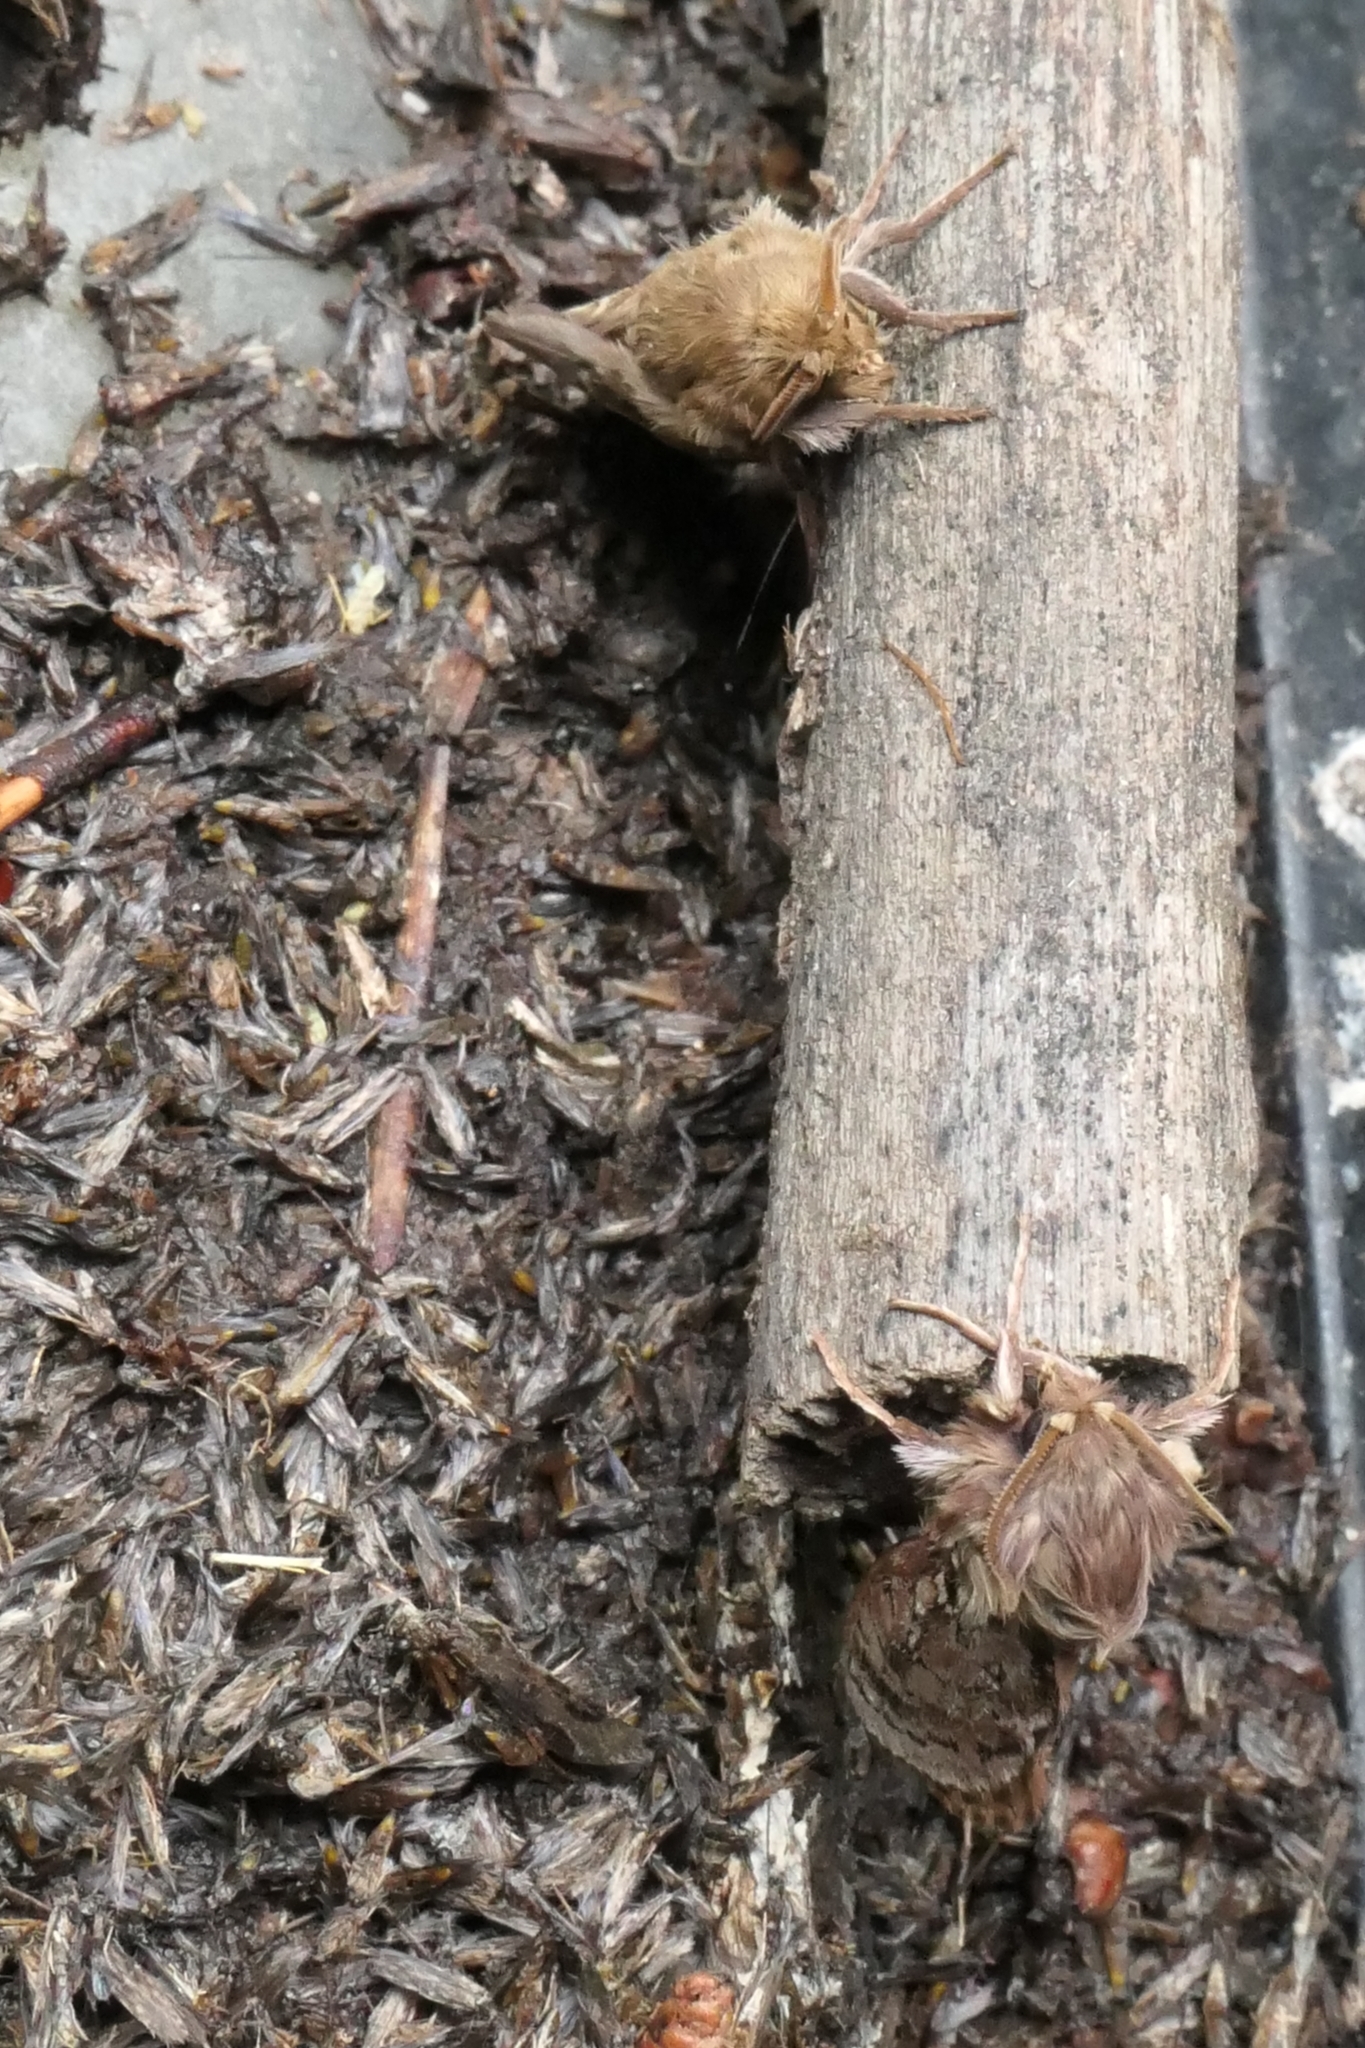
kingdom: Animalia
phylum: Arthropoda
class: Insecta
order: Lepidoptera
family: Hepialidae
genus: Wiseana
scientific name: Wiseana copularis
